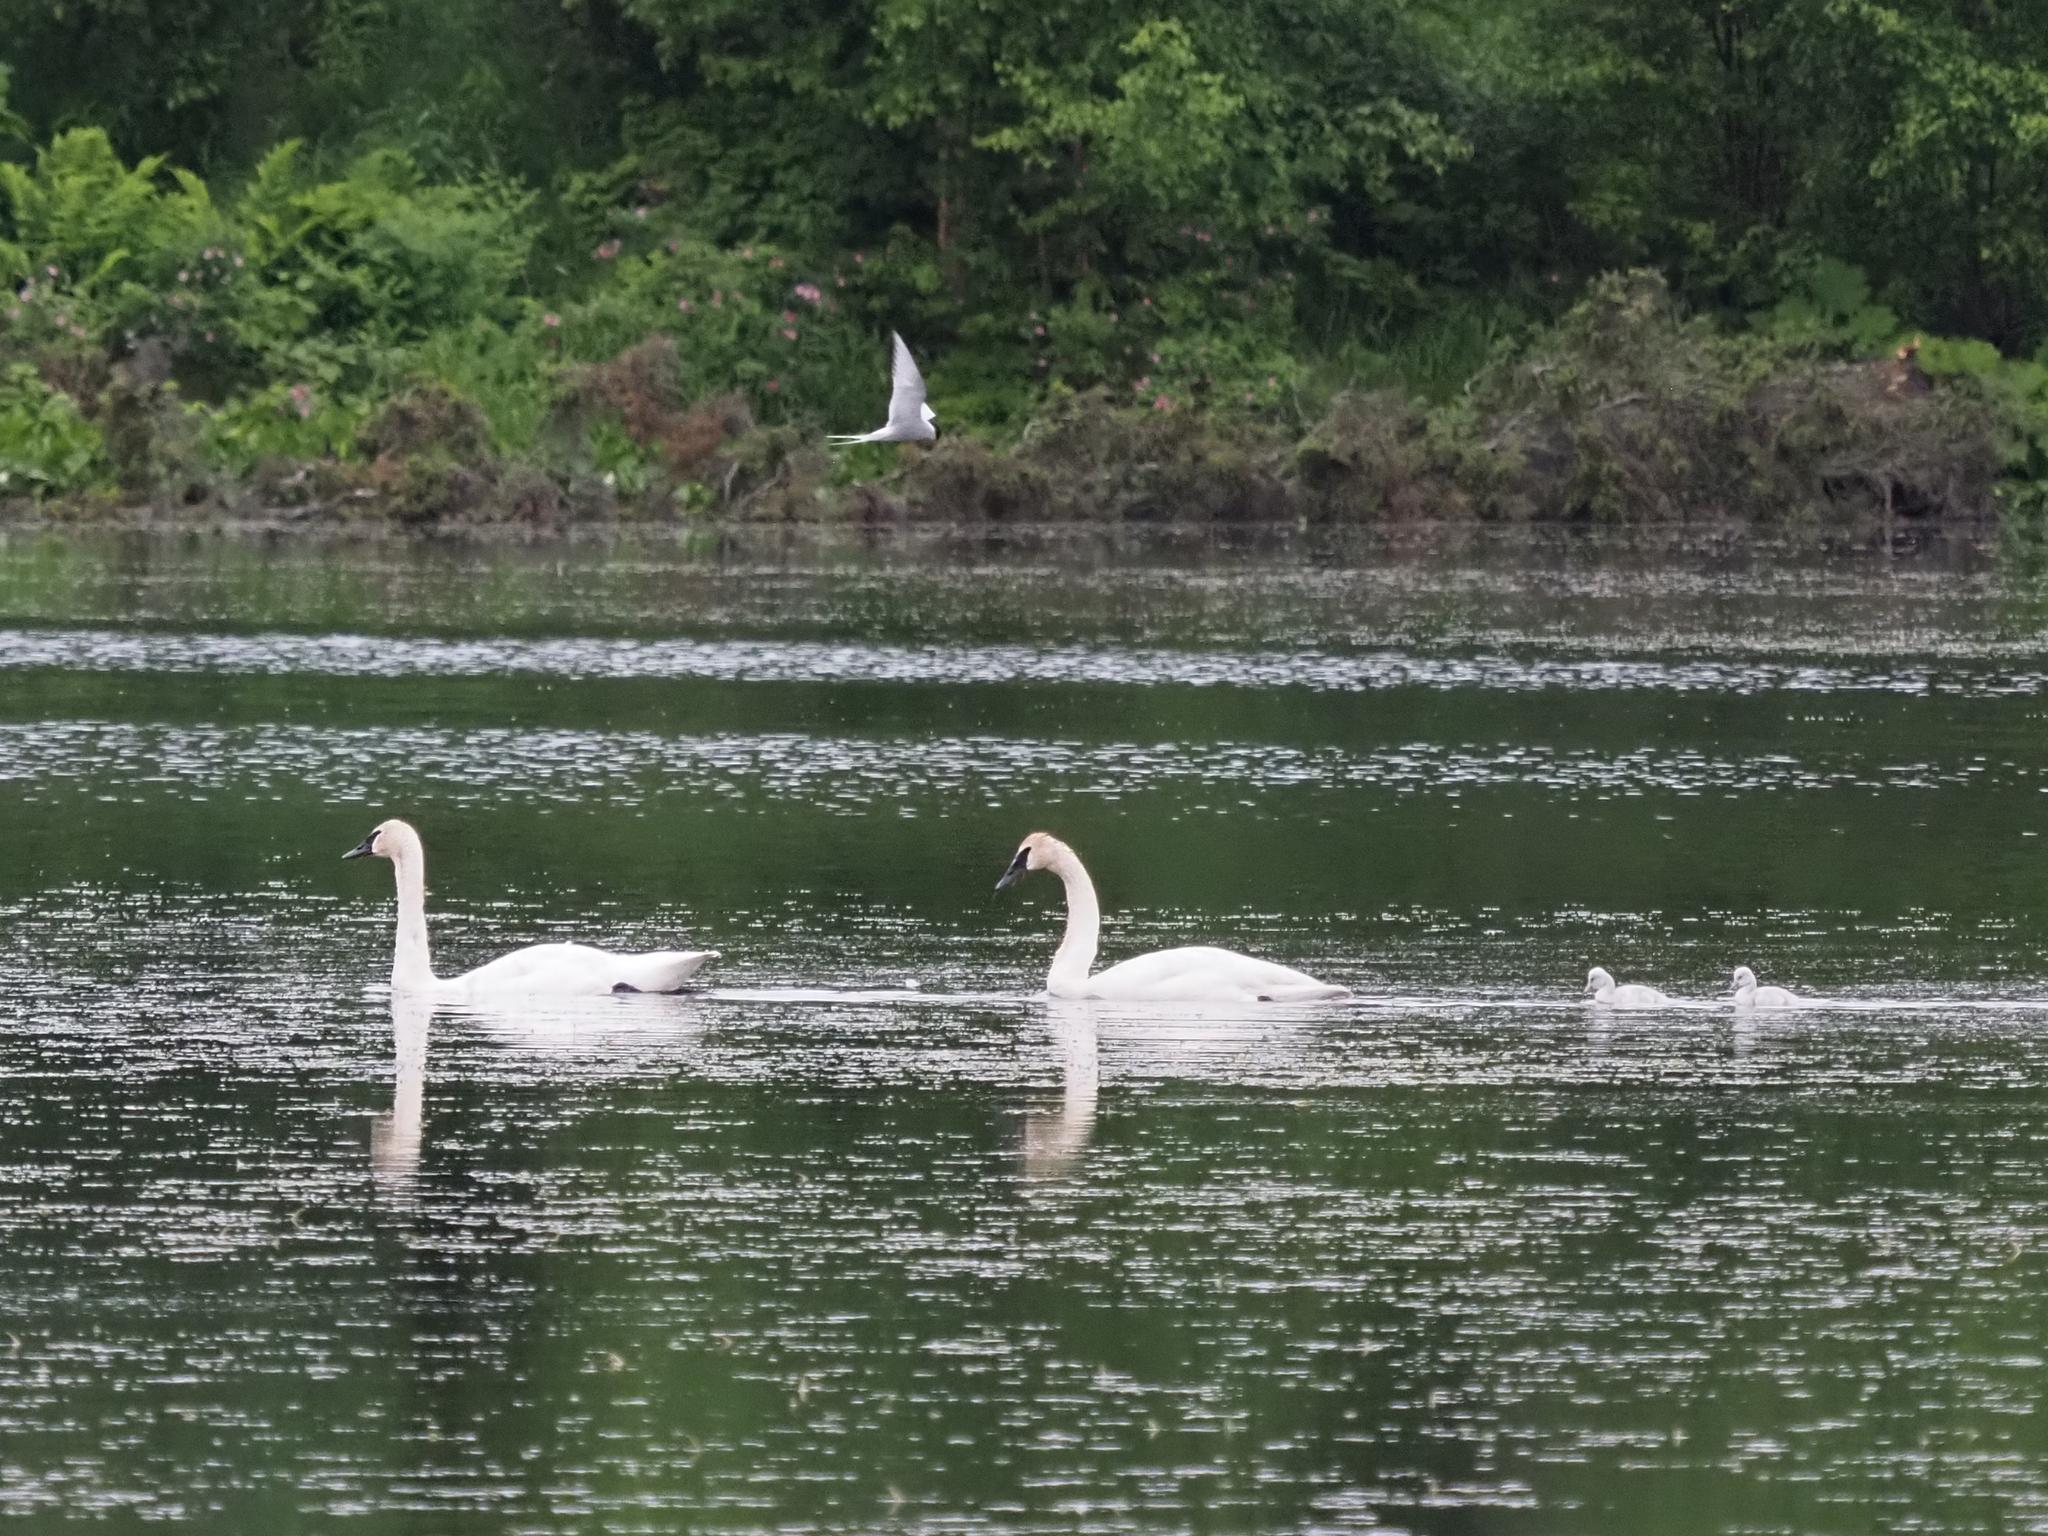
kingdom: Animalia
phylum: Chordata
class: Aves
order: Anseriformes
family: Anatidae
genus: Cygnus
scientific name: Cygnus buccinator
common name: Trumpeter swan
